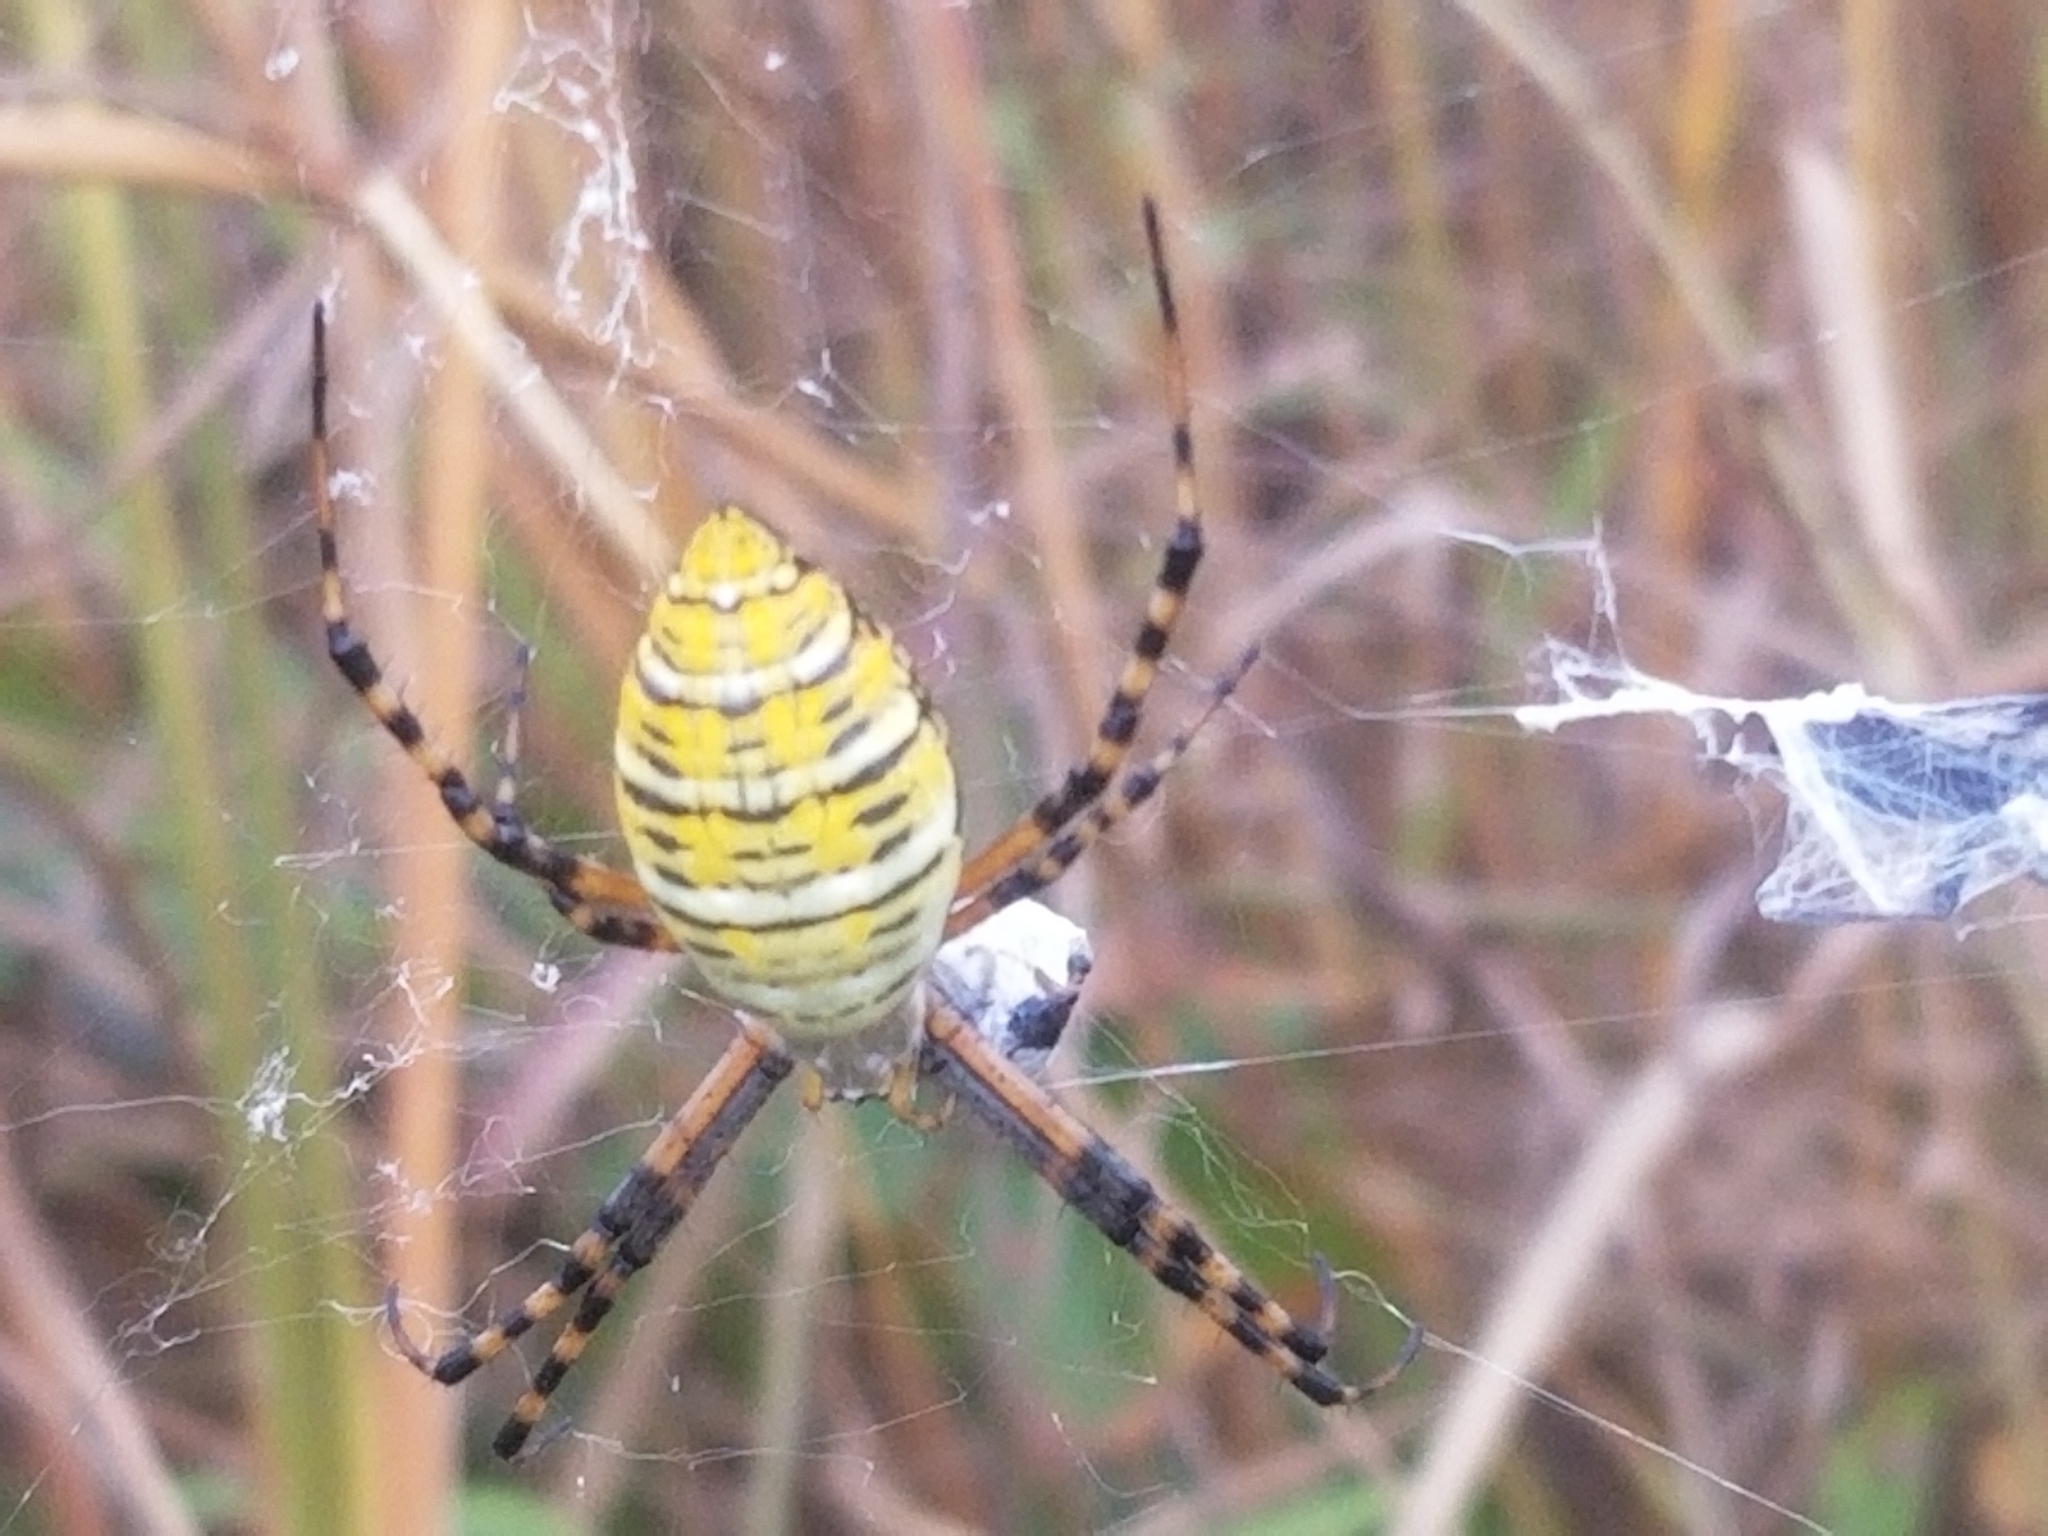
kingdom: Animalia
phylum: Arthropoda
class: Arachnida
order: Araneae
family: Araneidae
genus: Argiope
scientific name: Argiope trifasciata
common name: Banded garden spider
